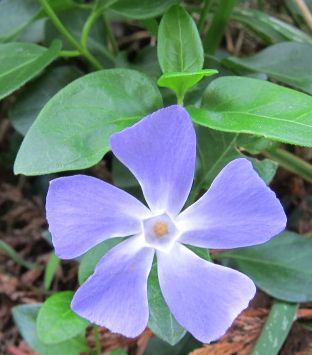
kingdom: Plantae
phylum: Tracheophyta
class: Magnoliopsida
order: Gentianales
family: Apocynaceae
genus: Vinca
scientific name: Vinca major
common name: Greater periwinkle
